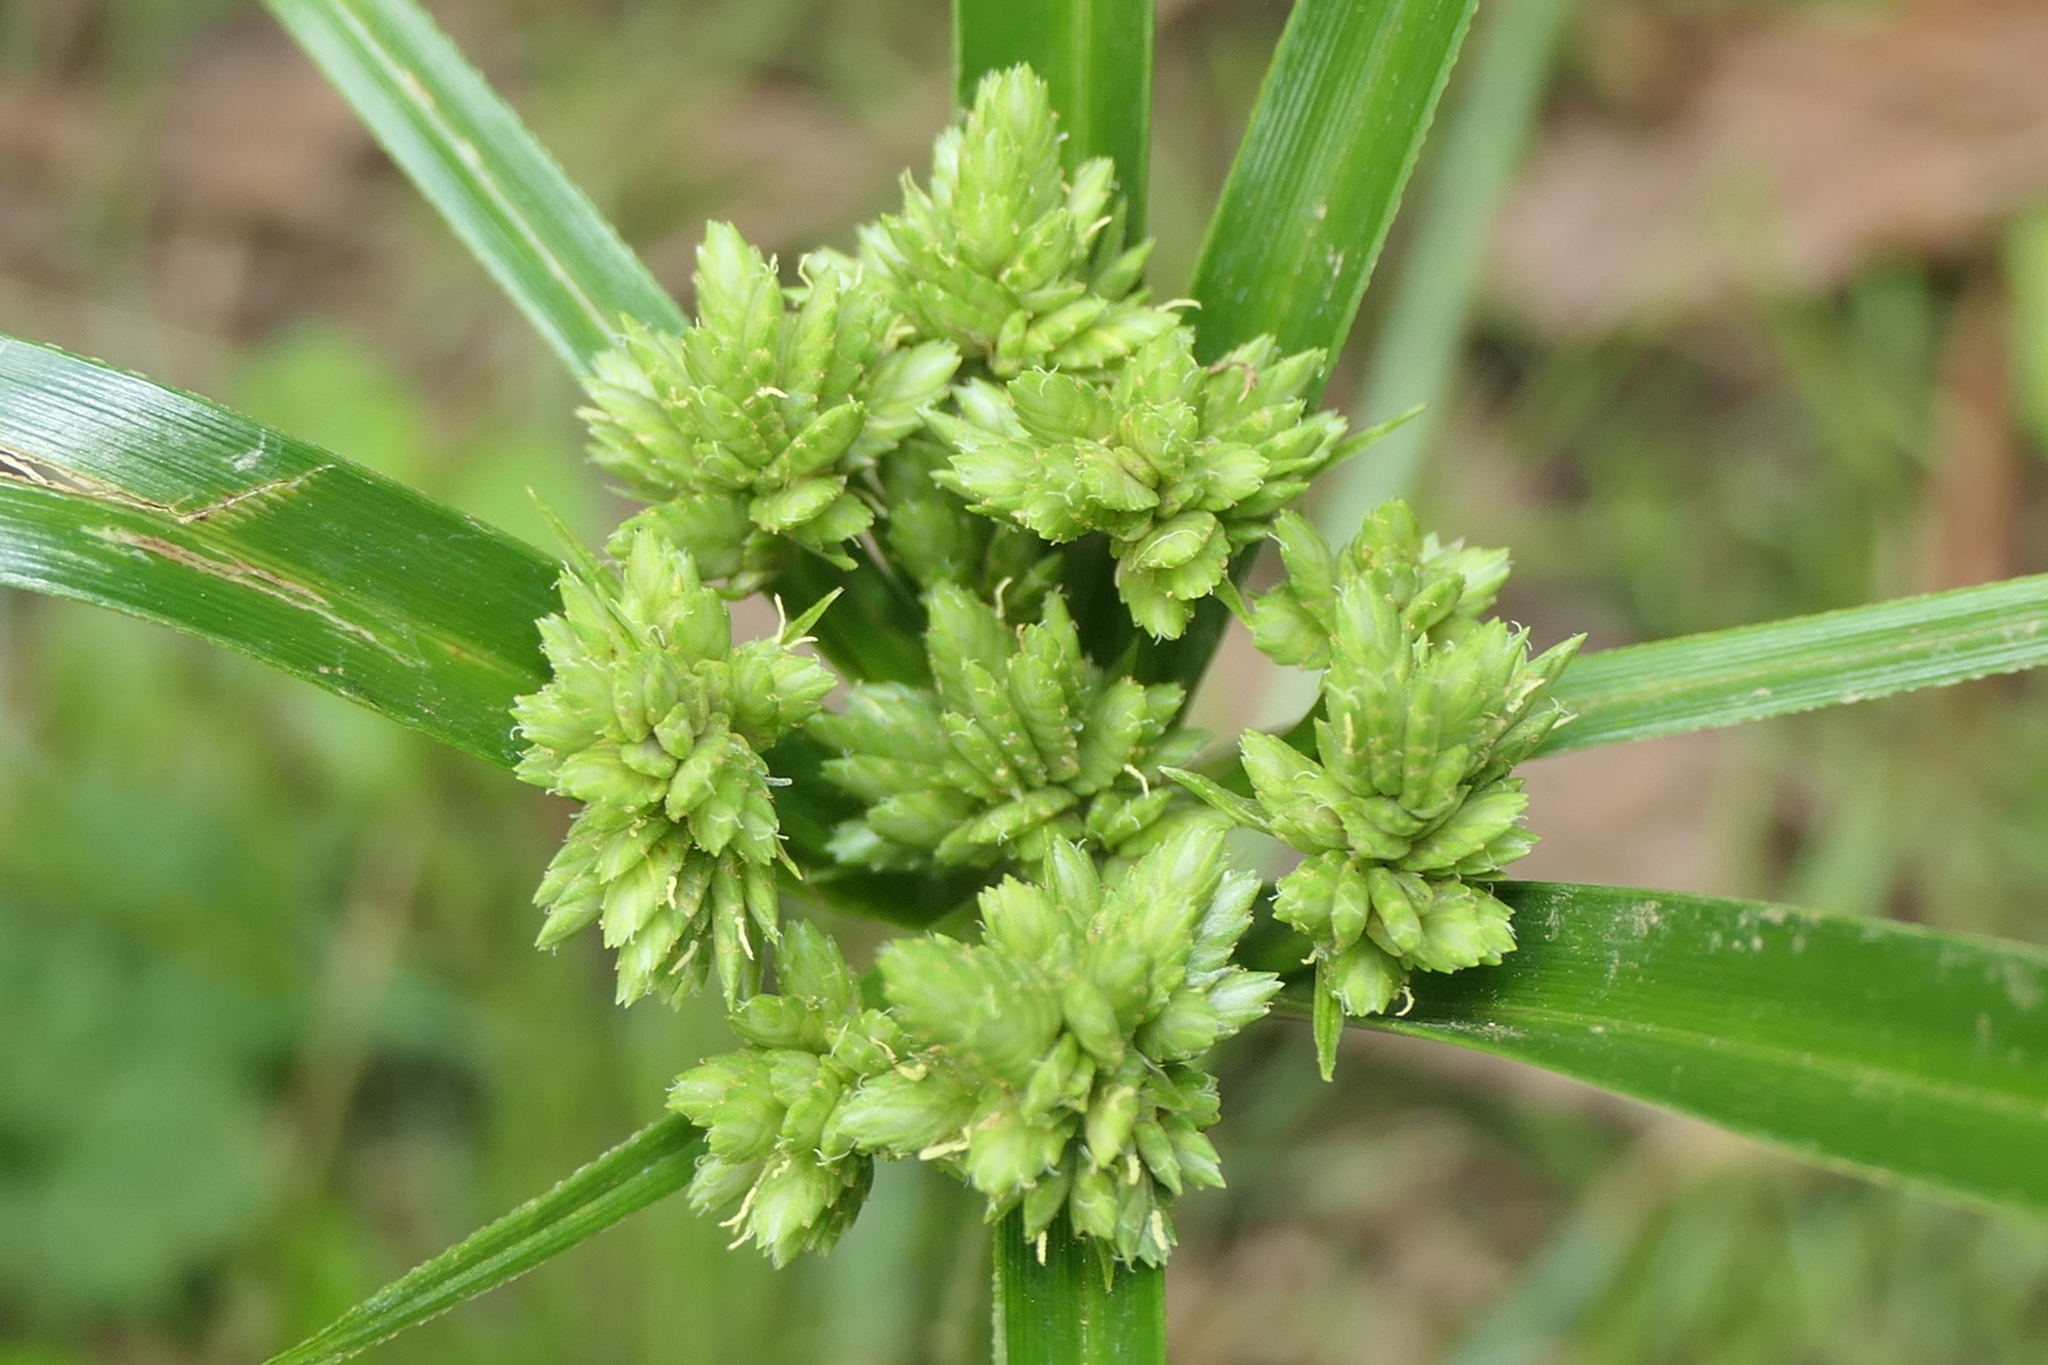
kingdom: Plantae
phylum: Tracheophyta
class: Liliopsida
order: Poales
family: Cyperaceae
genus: Cyperus
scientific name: Cyperus eragrostis
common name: Tall flatsedge
